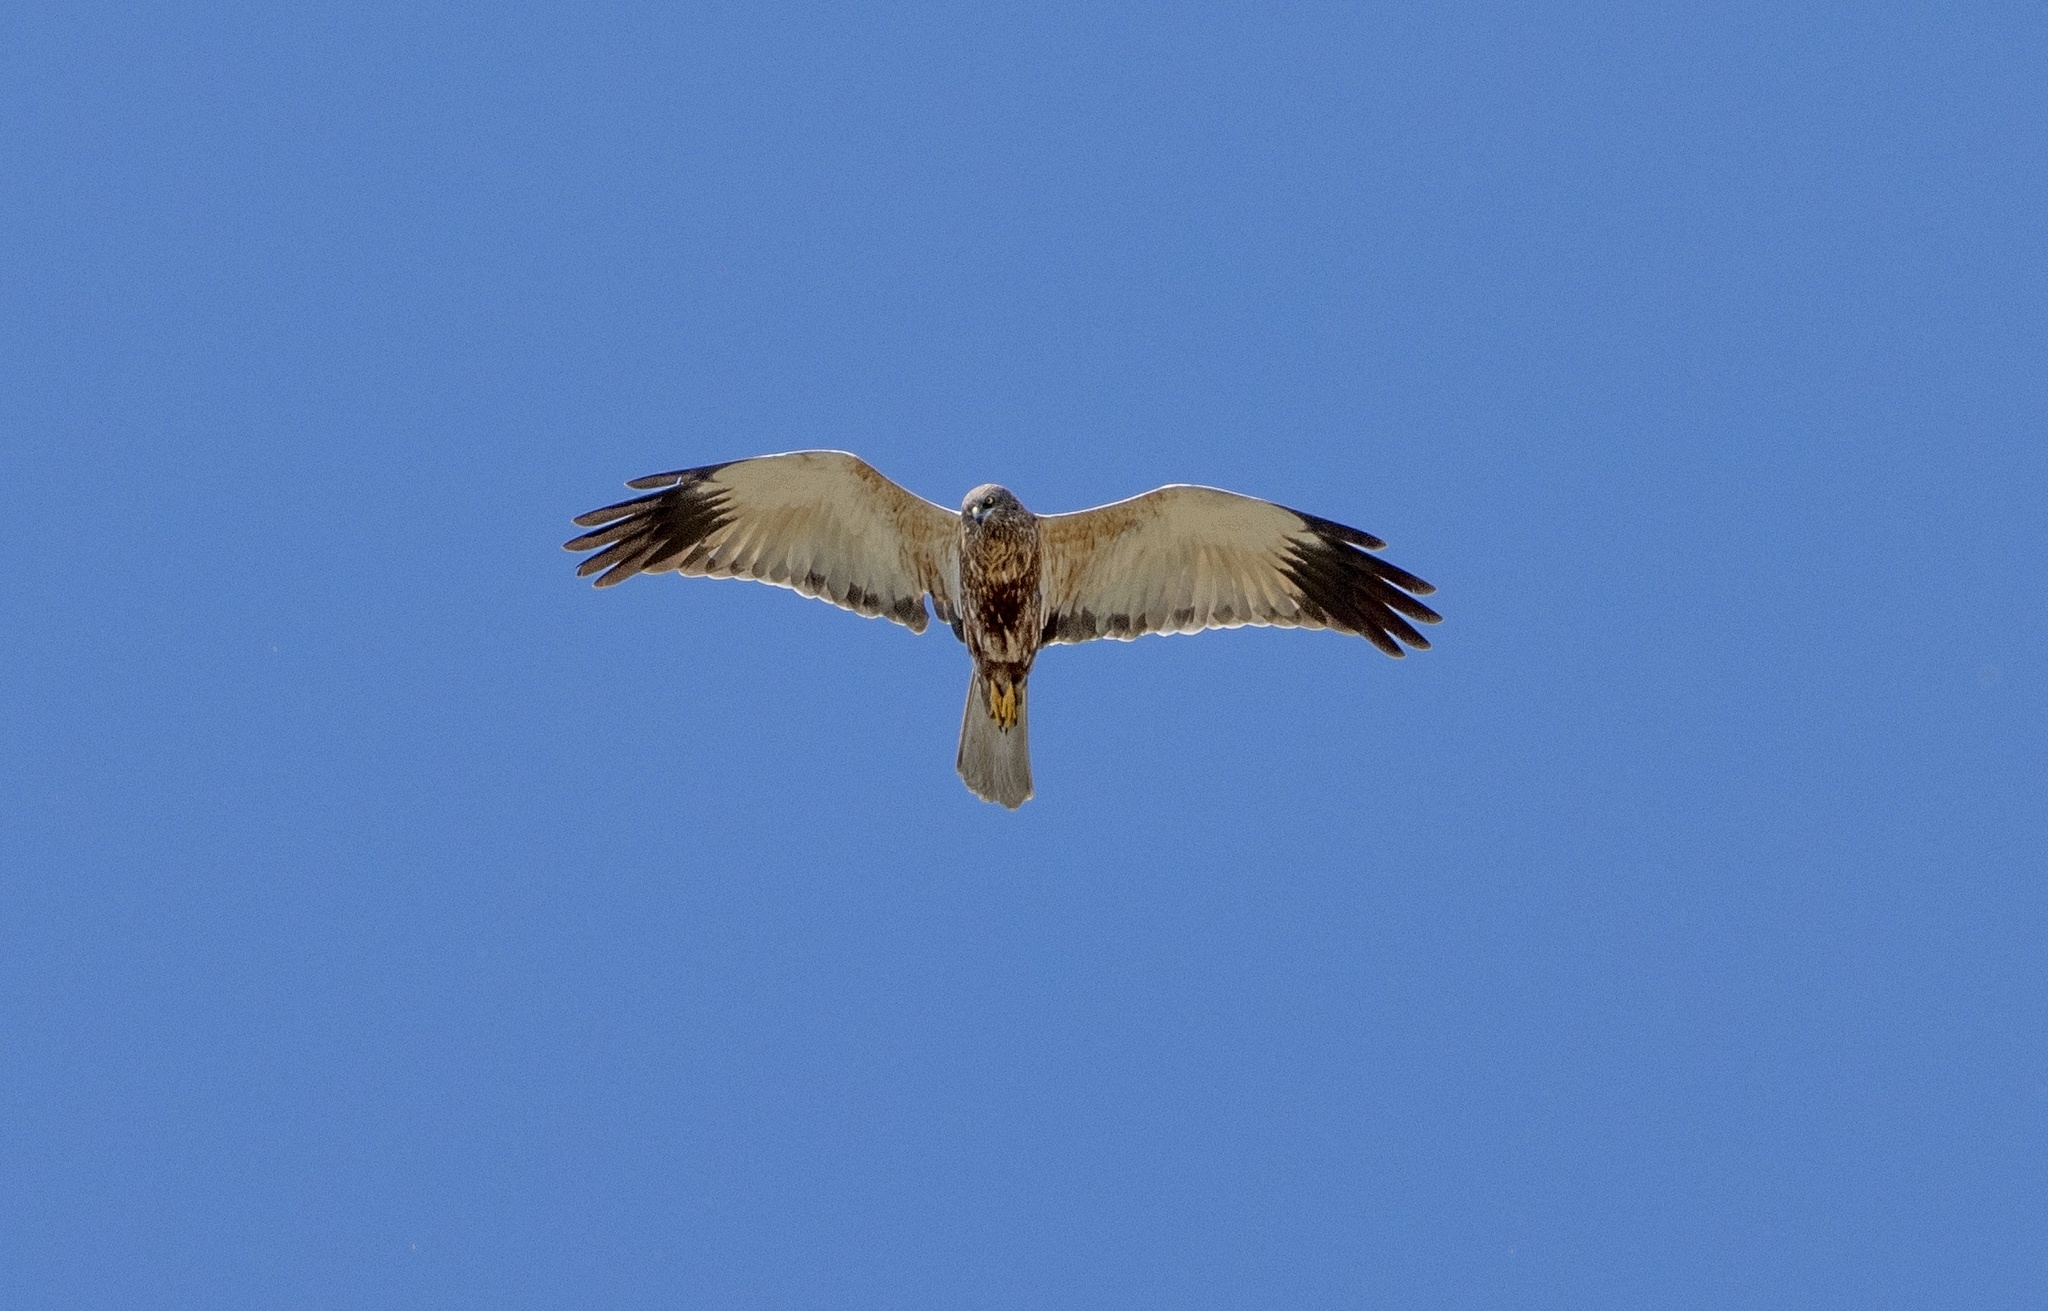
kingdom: Animalia
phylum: Chordata
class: Aves
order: Accipitriformes
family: Accipitridae
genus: Circus
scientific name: Circus aeruginosus
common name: Western marsh harrier
